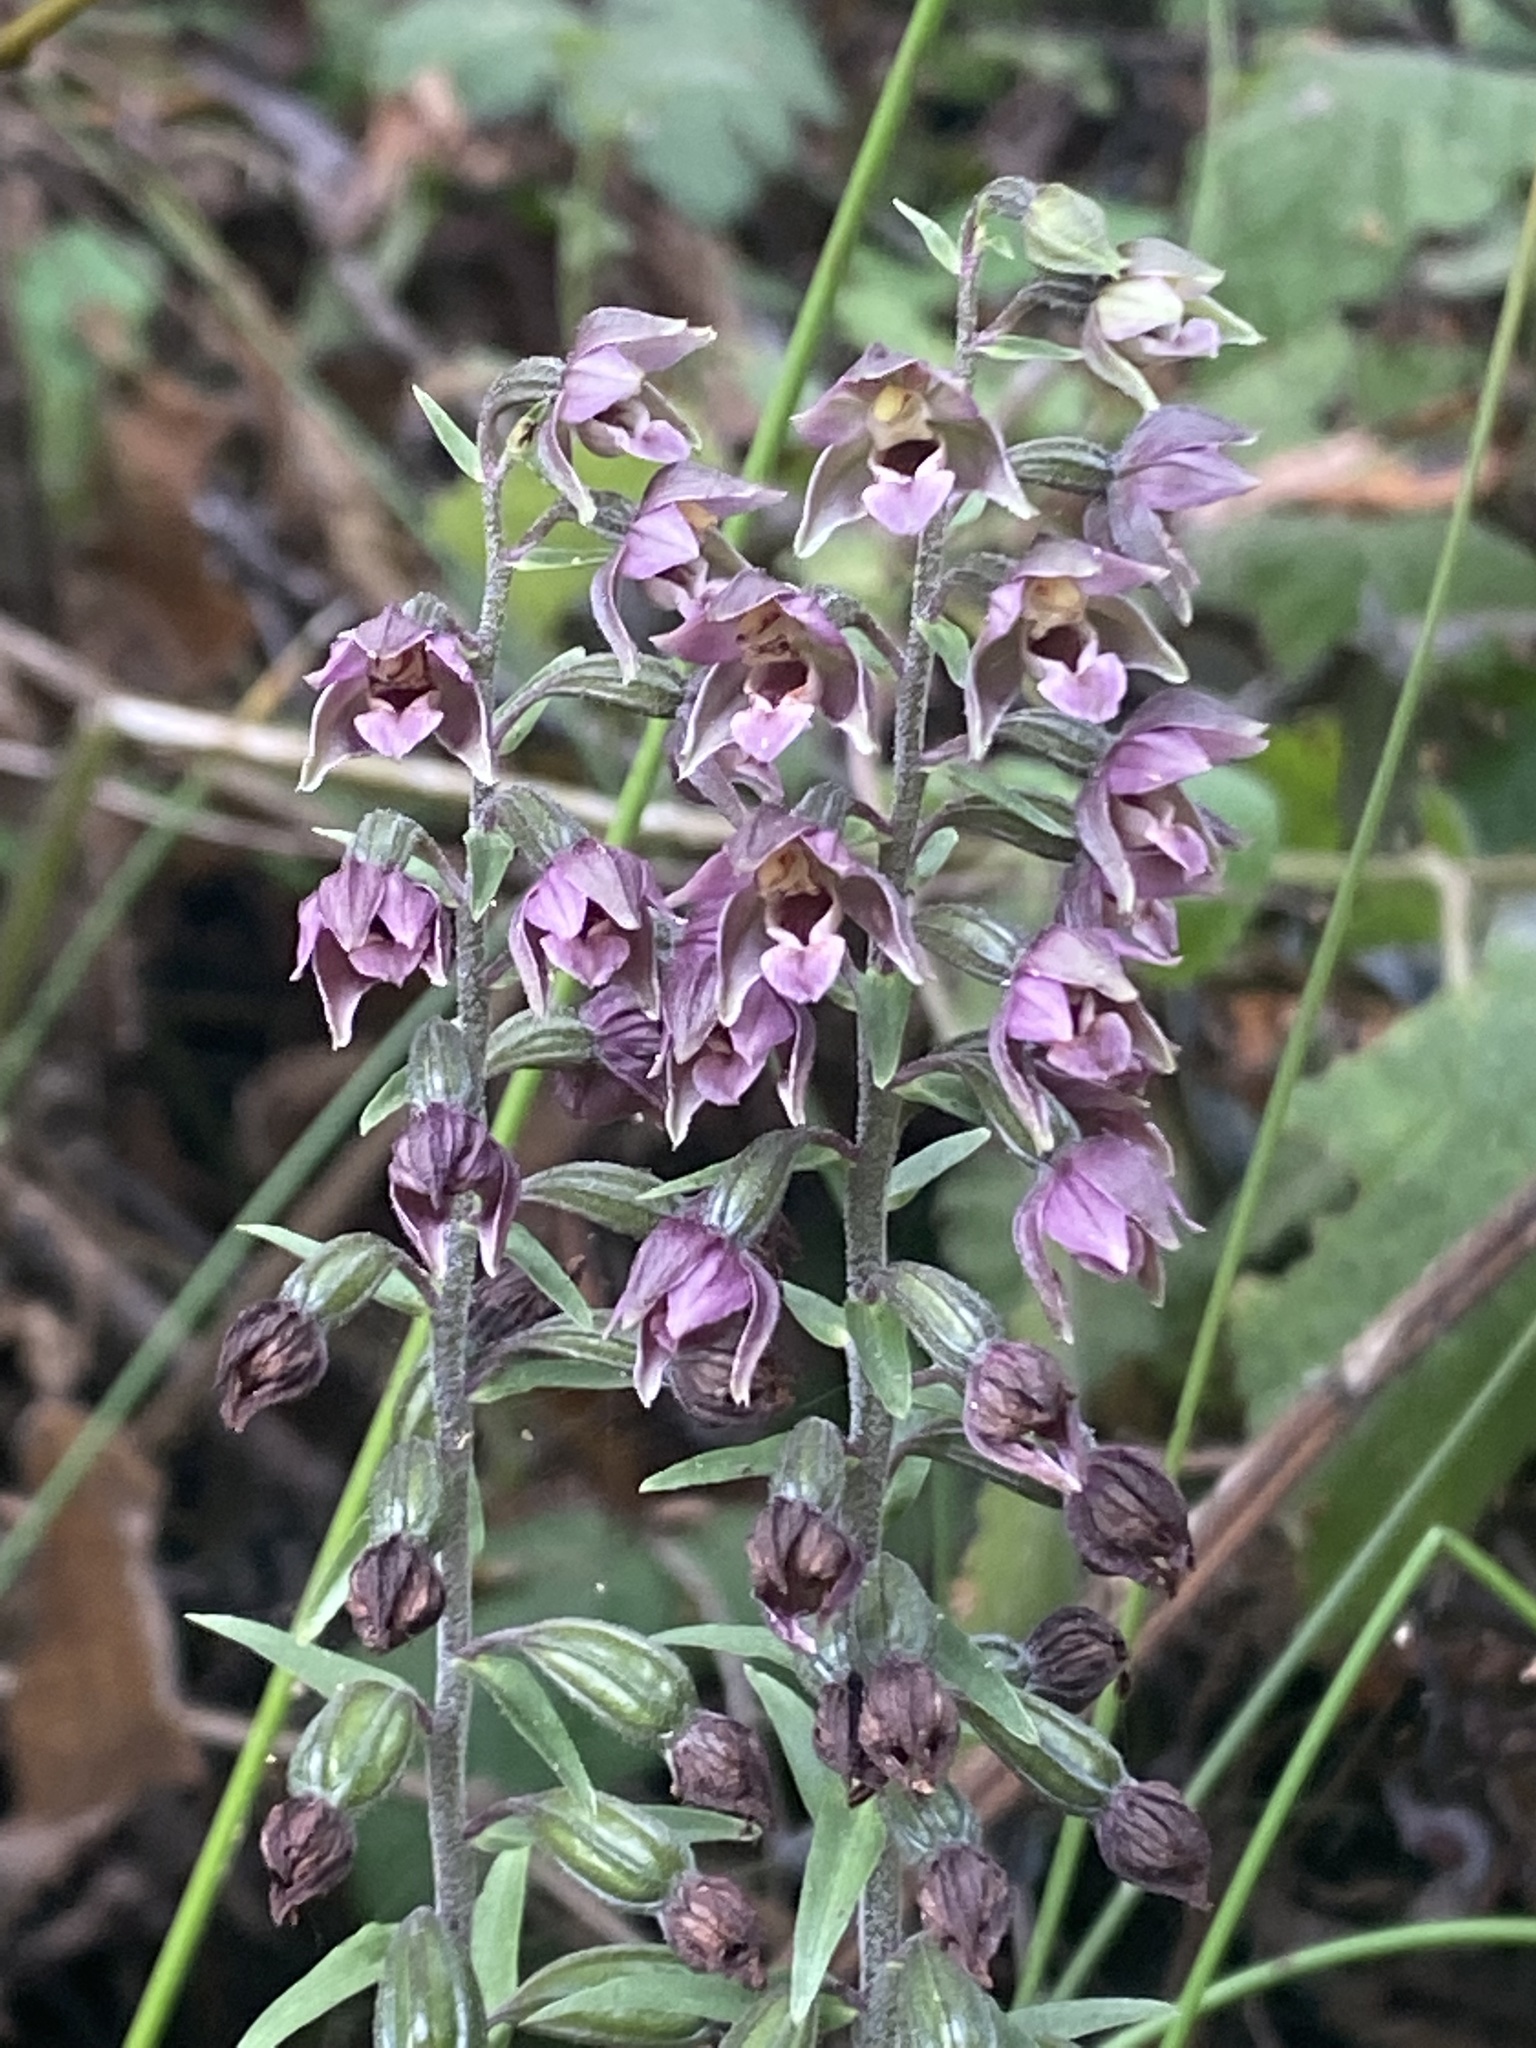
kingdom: Plantae
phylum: Tracheophyta
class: Liliopsida
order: Asparagales
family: Orchidaceae
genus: Epipactis
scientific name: Epipactis helleborine
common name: Broad-leaved helleborine
